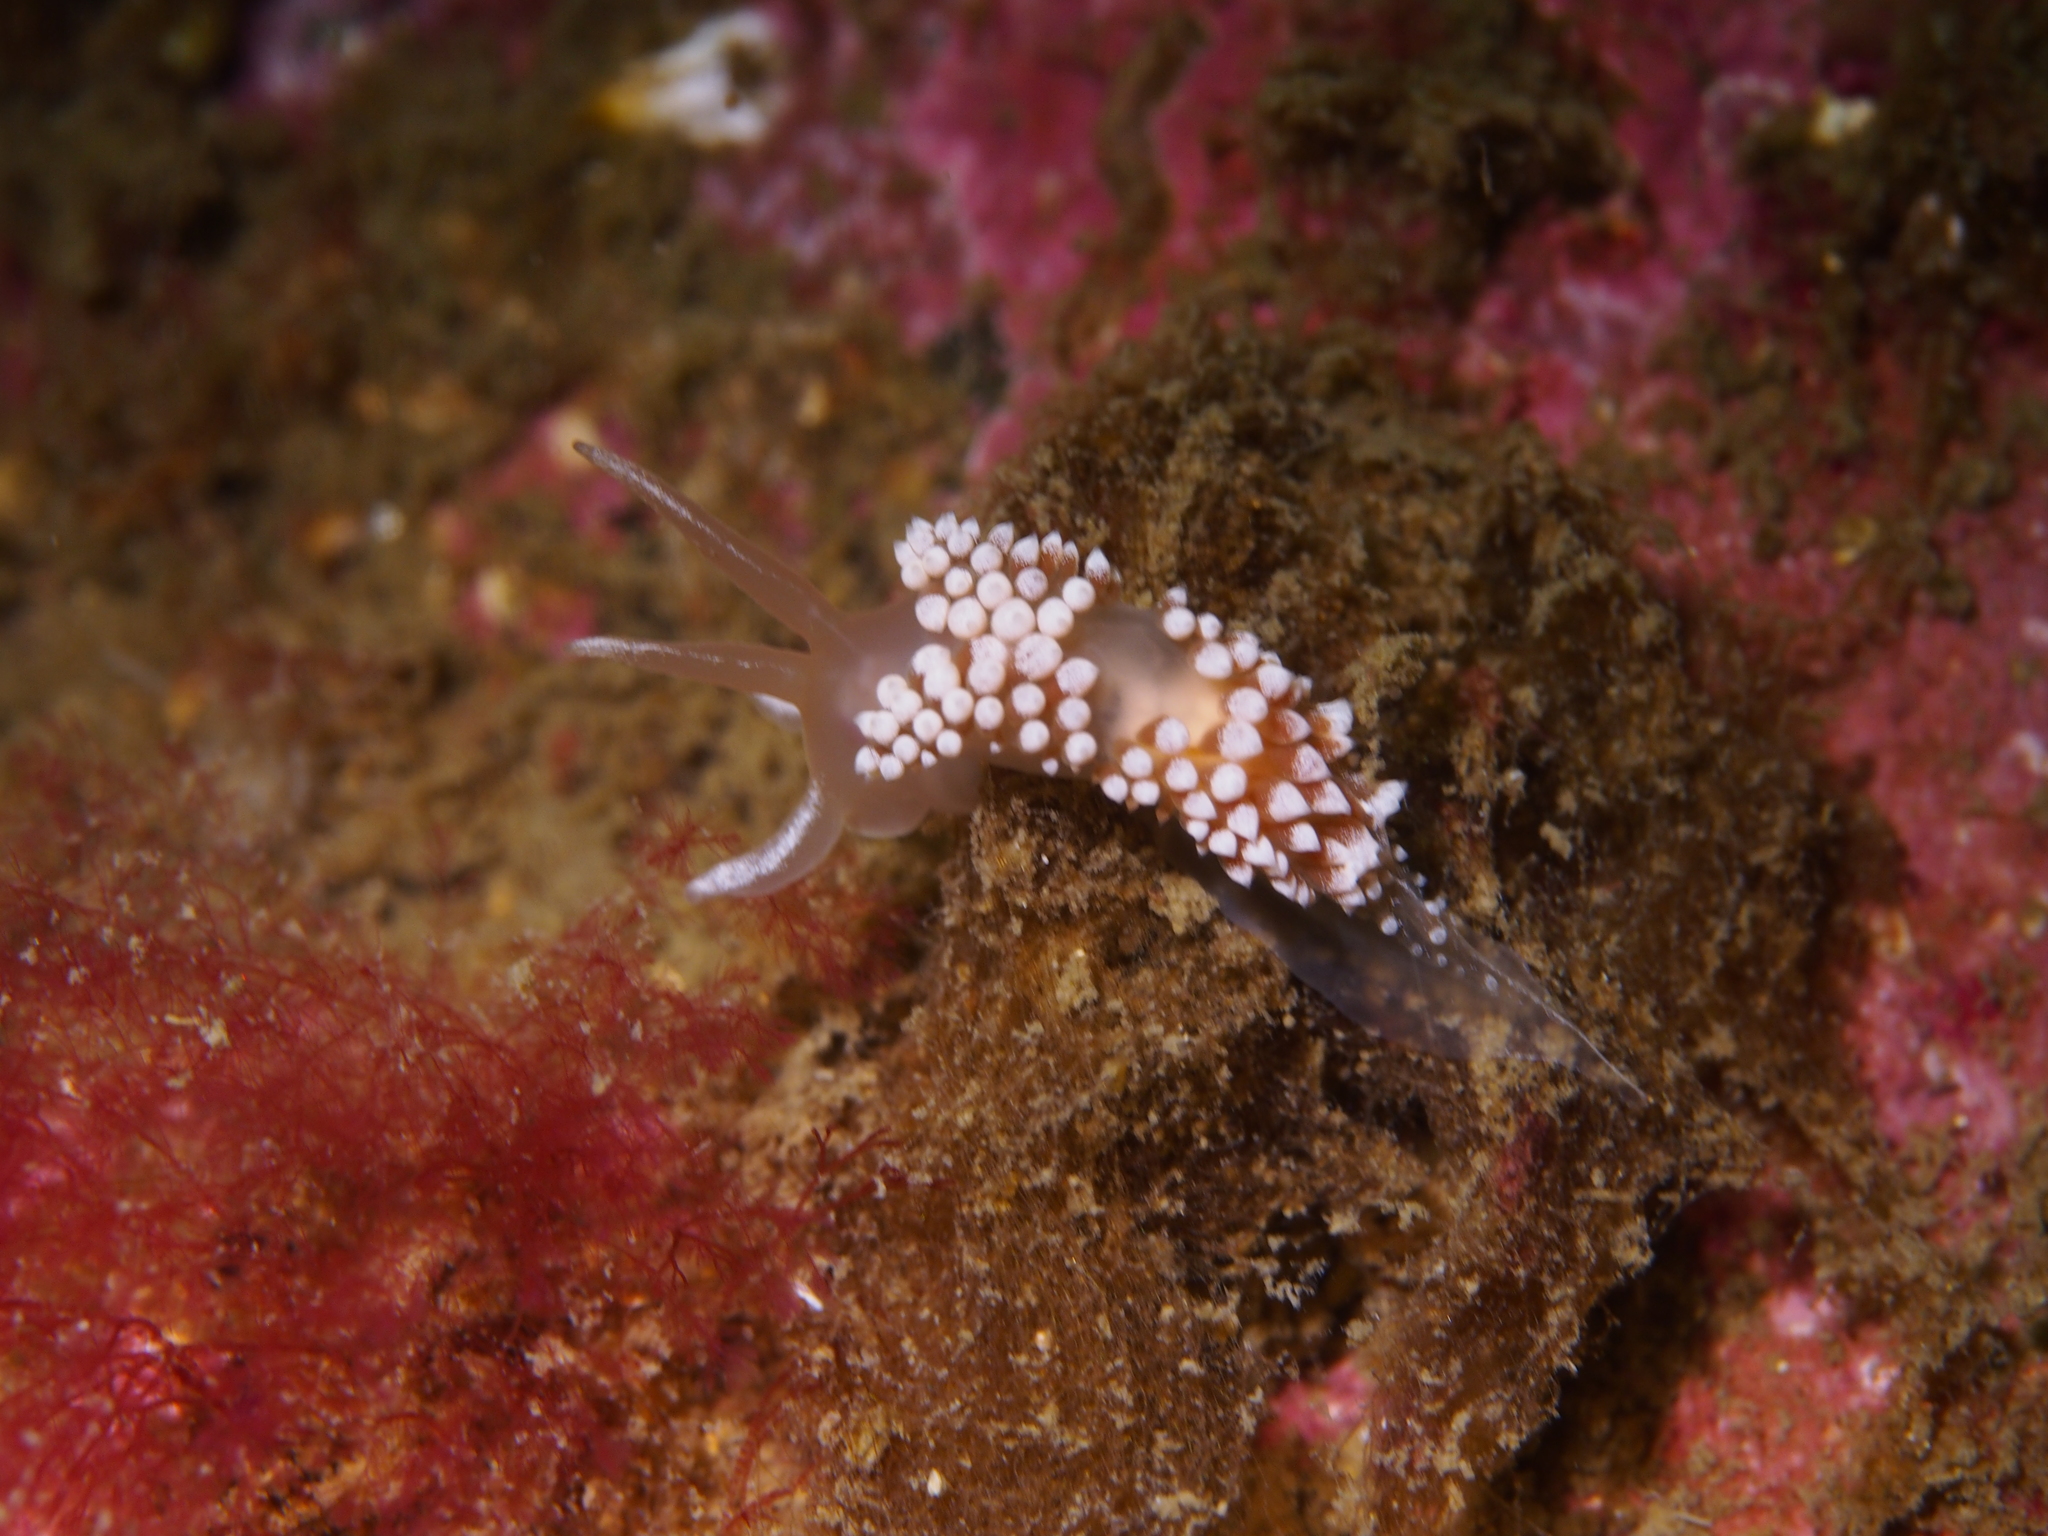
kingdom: Animalia
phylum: Mollusca
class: Gastropoda
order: Nudibranchia
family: Coryphellidae
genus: Coryphella
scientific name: Coryphella verrucosa
